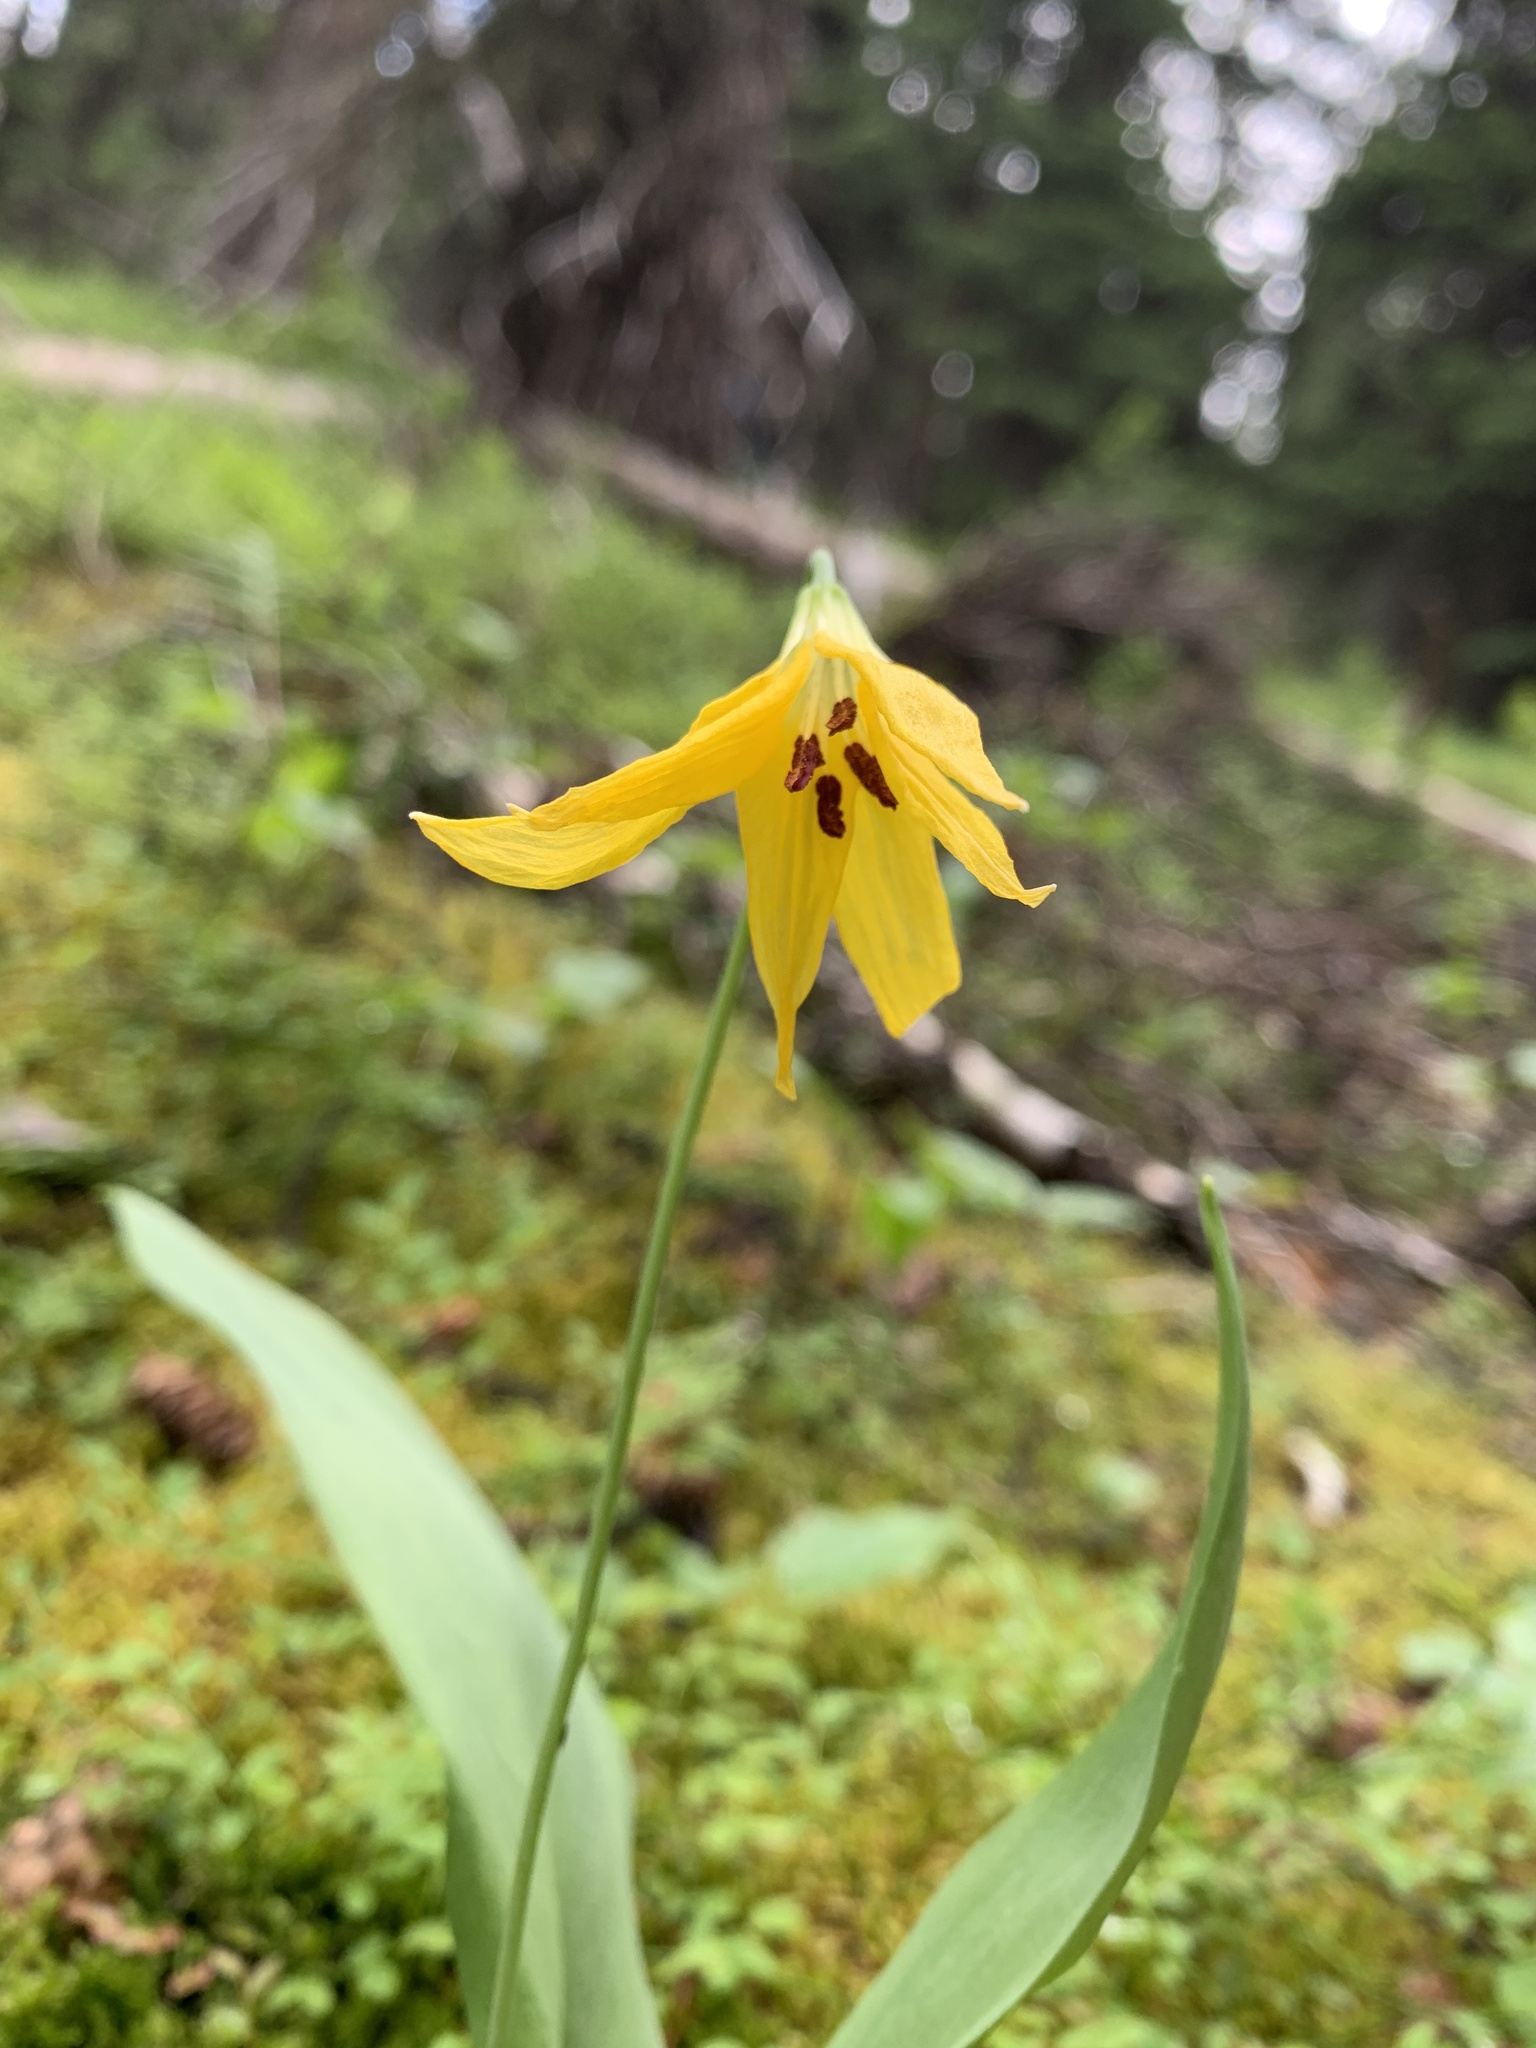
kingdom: Plantae
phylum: Tracheophyta
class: Liliopsida
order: Liliales
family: Liliaceae
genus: Erythronium
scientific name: Erythronium grandiflorum
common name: Avalanche-lily
